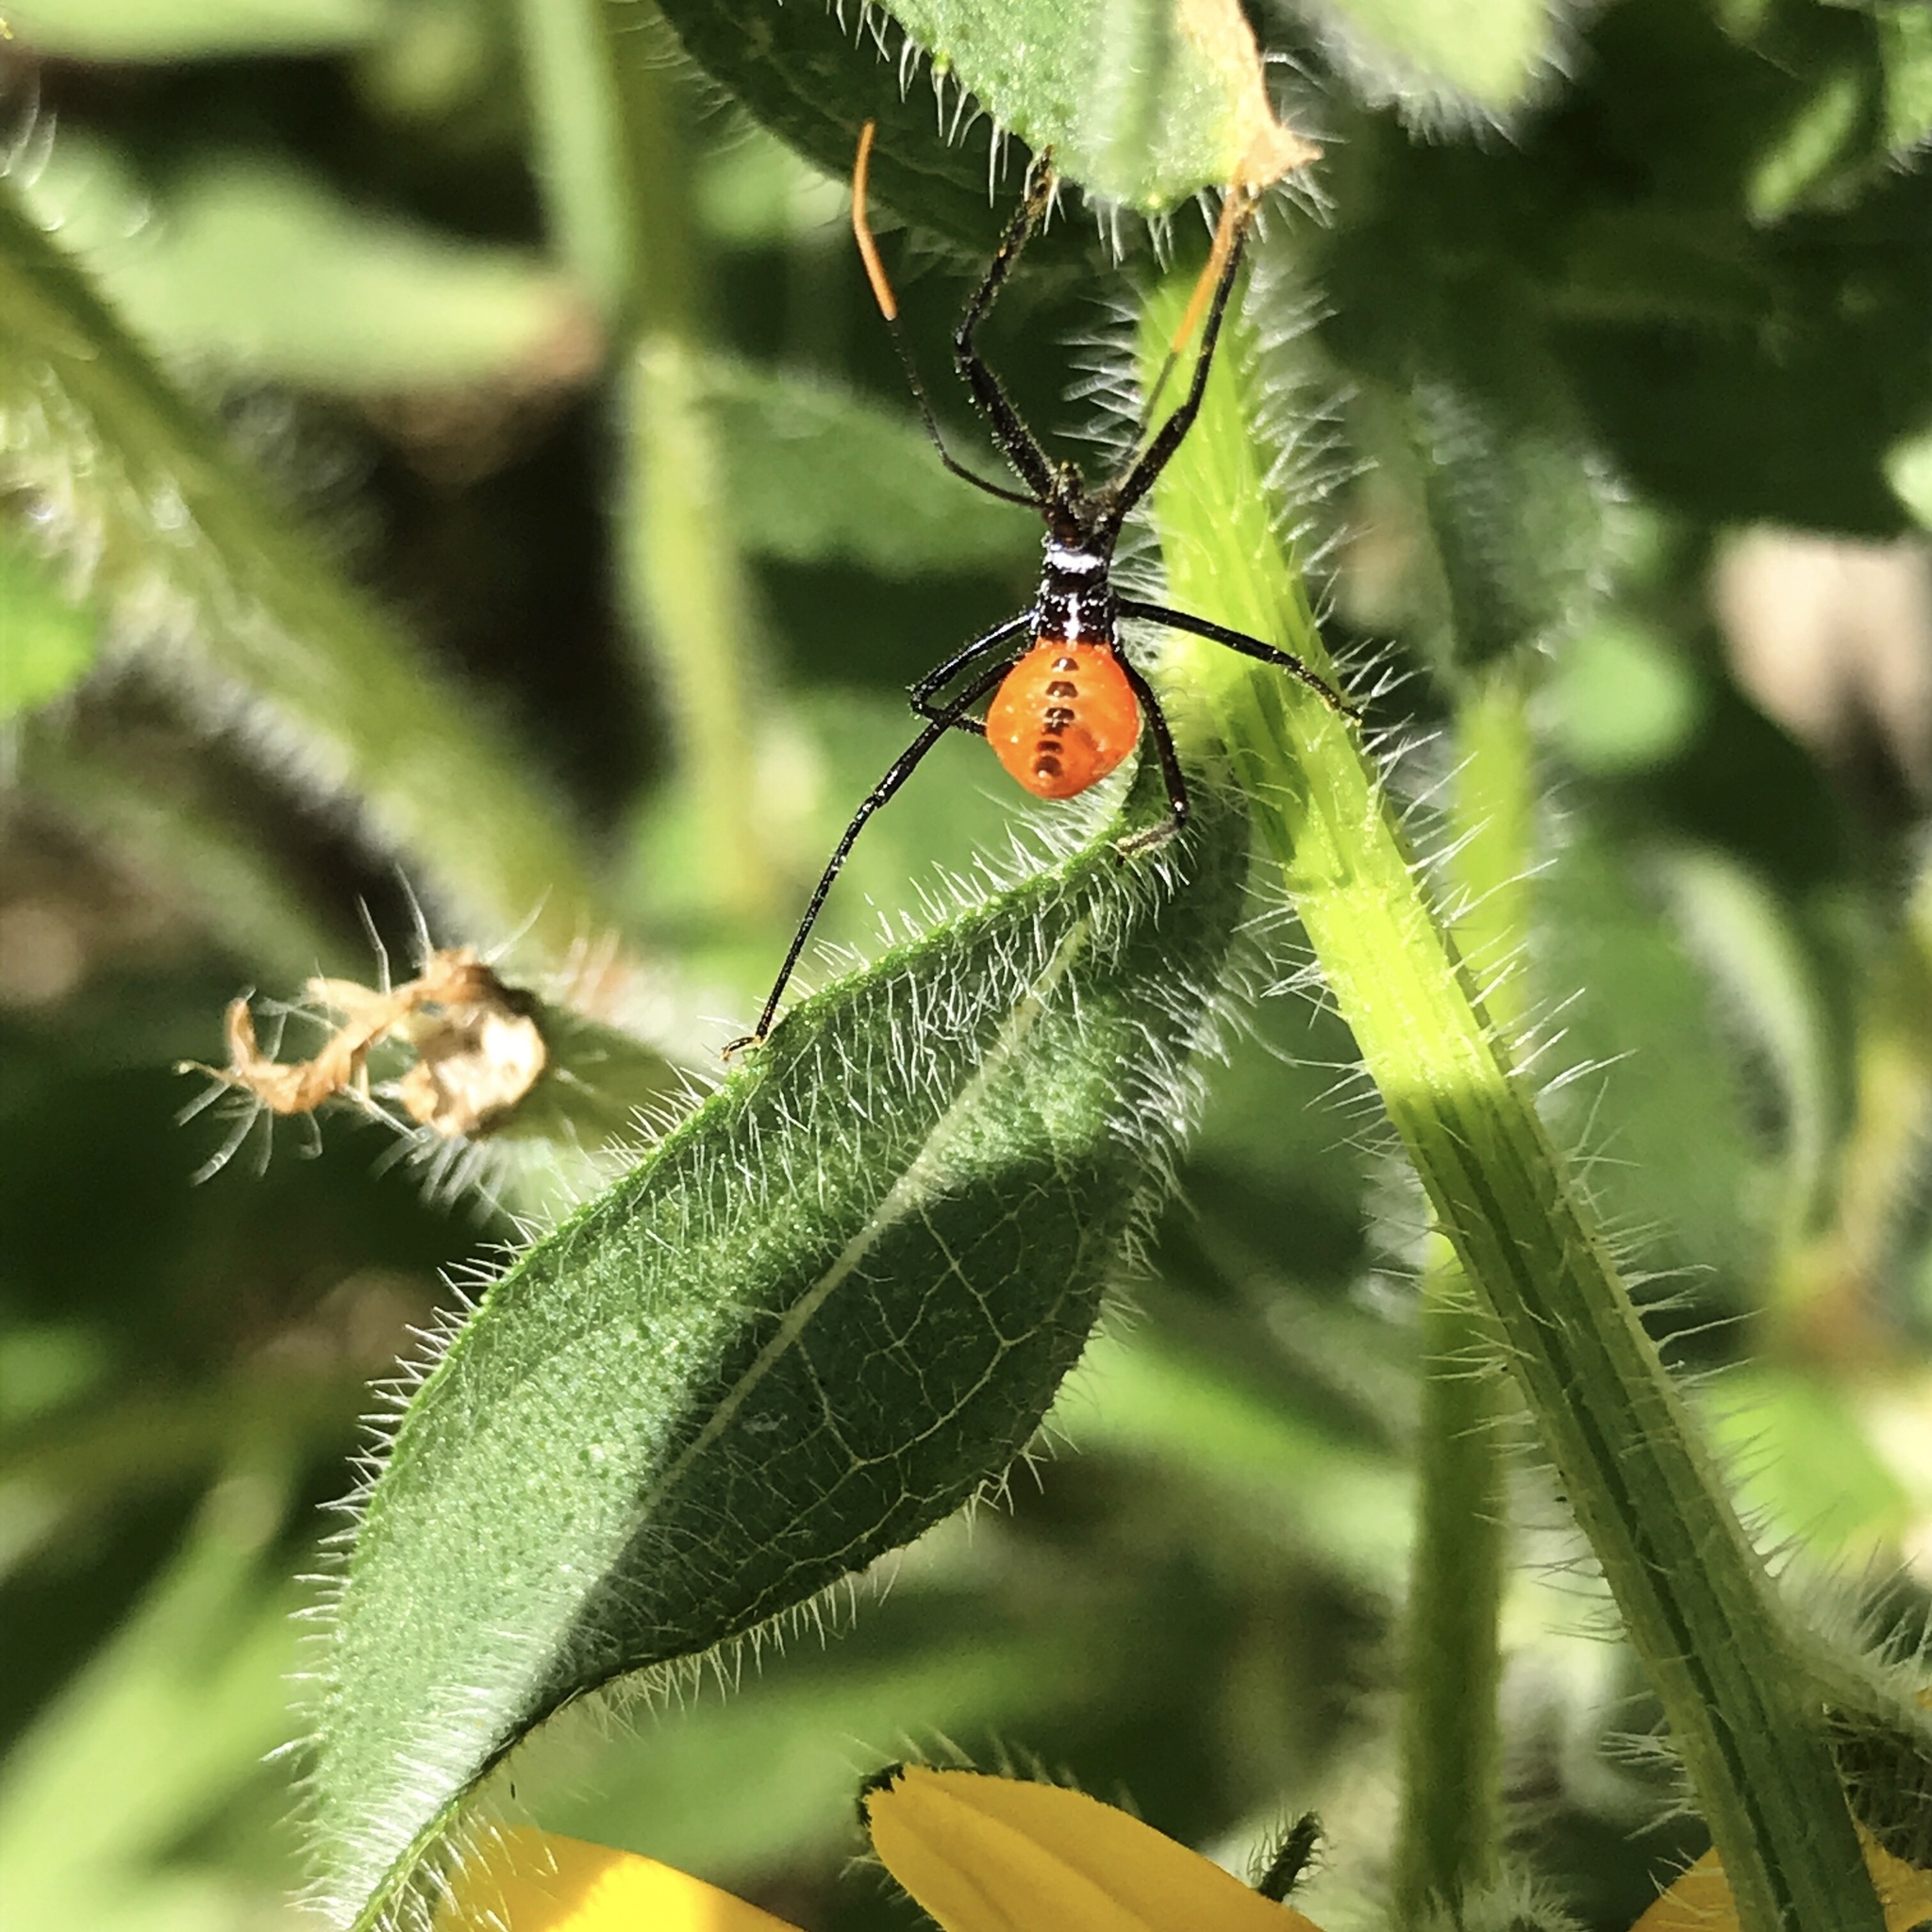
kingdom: Animalia
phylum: Arthropoda
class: Insecta
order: Hemiptera
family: Reduviidae
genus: Arilus
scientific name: Arilus cristatus
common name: North american wheel bug
